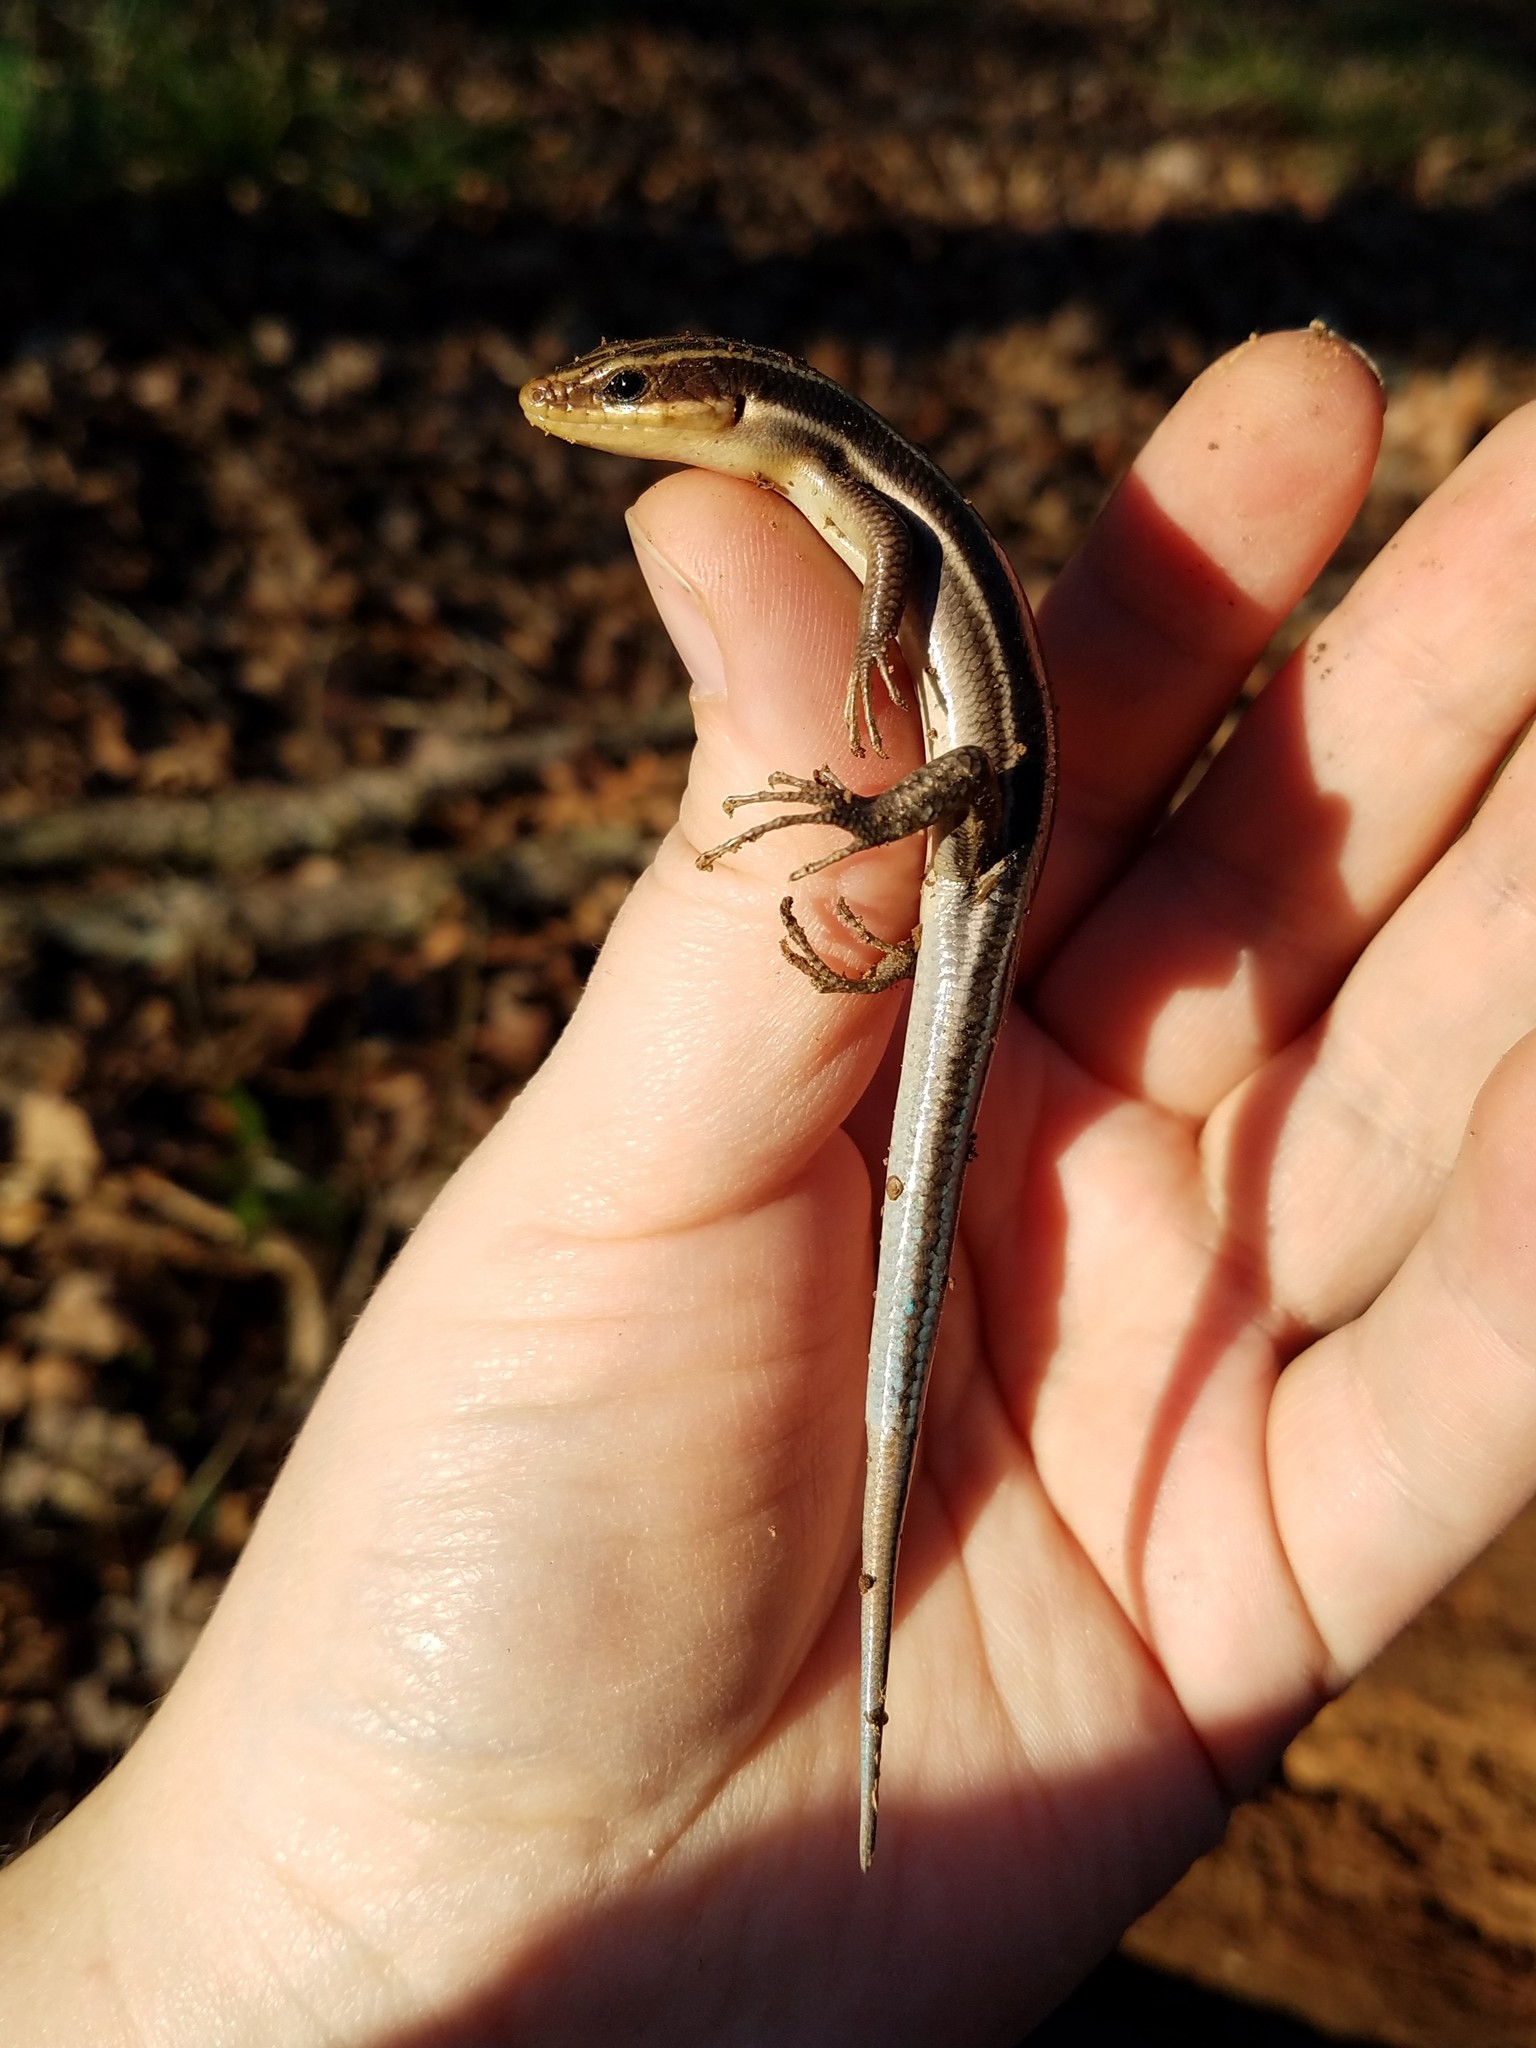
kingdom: Animalia
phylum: Chordata
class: Squamata
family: Scincidae
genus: Plestiodon
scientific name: Plestiodon fasciatus
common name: Five-lined skink
